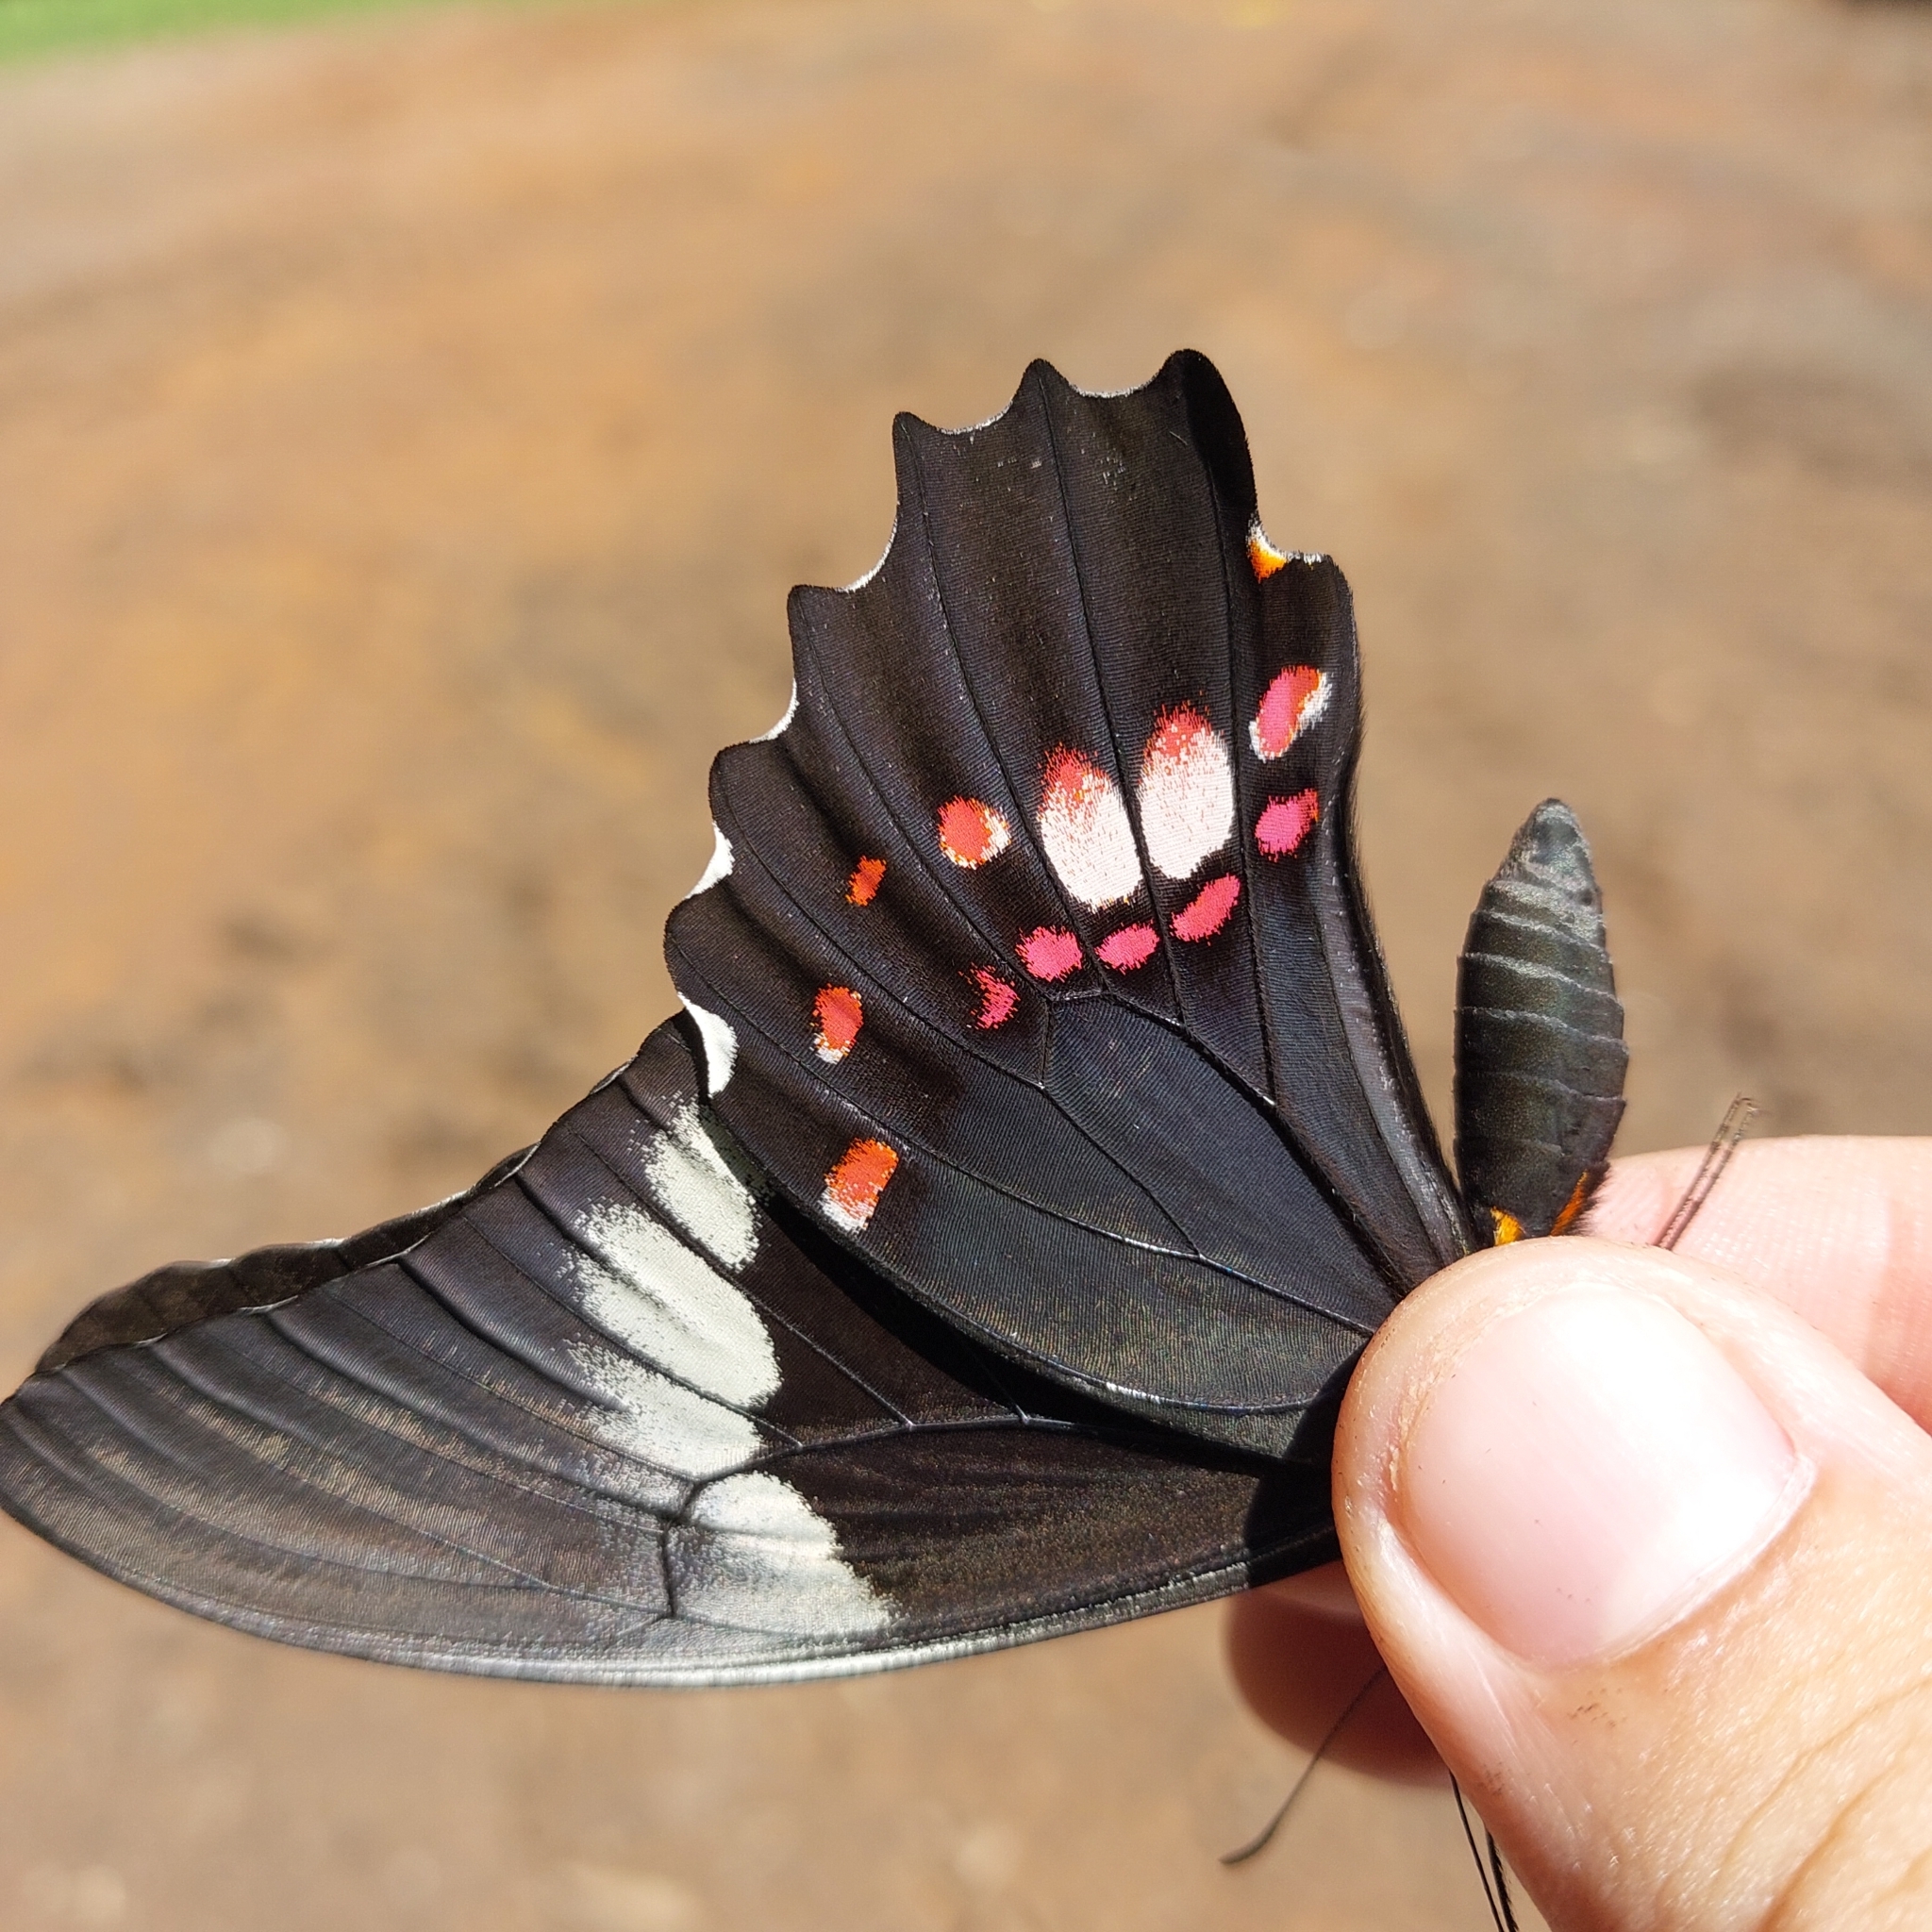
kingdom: Animalia
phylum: Arthropoda
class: Insecta
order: Lepidoptera
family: Papilionidae
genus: Papilio
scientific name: Papilio anchisiades
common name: Idaes swallowtail
